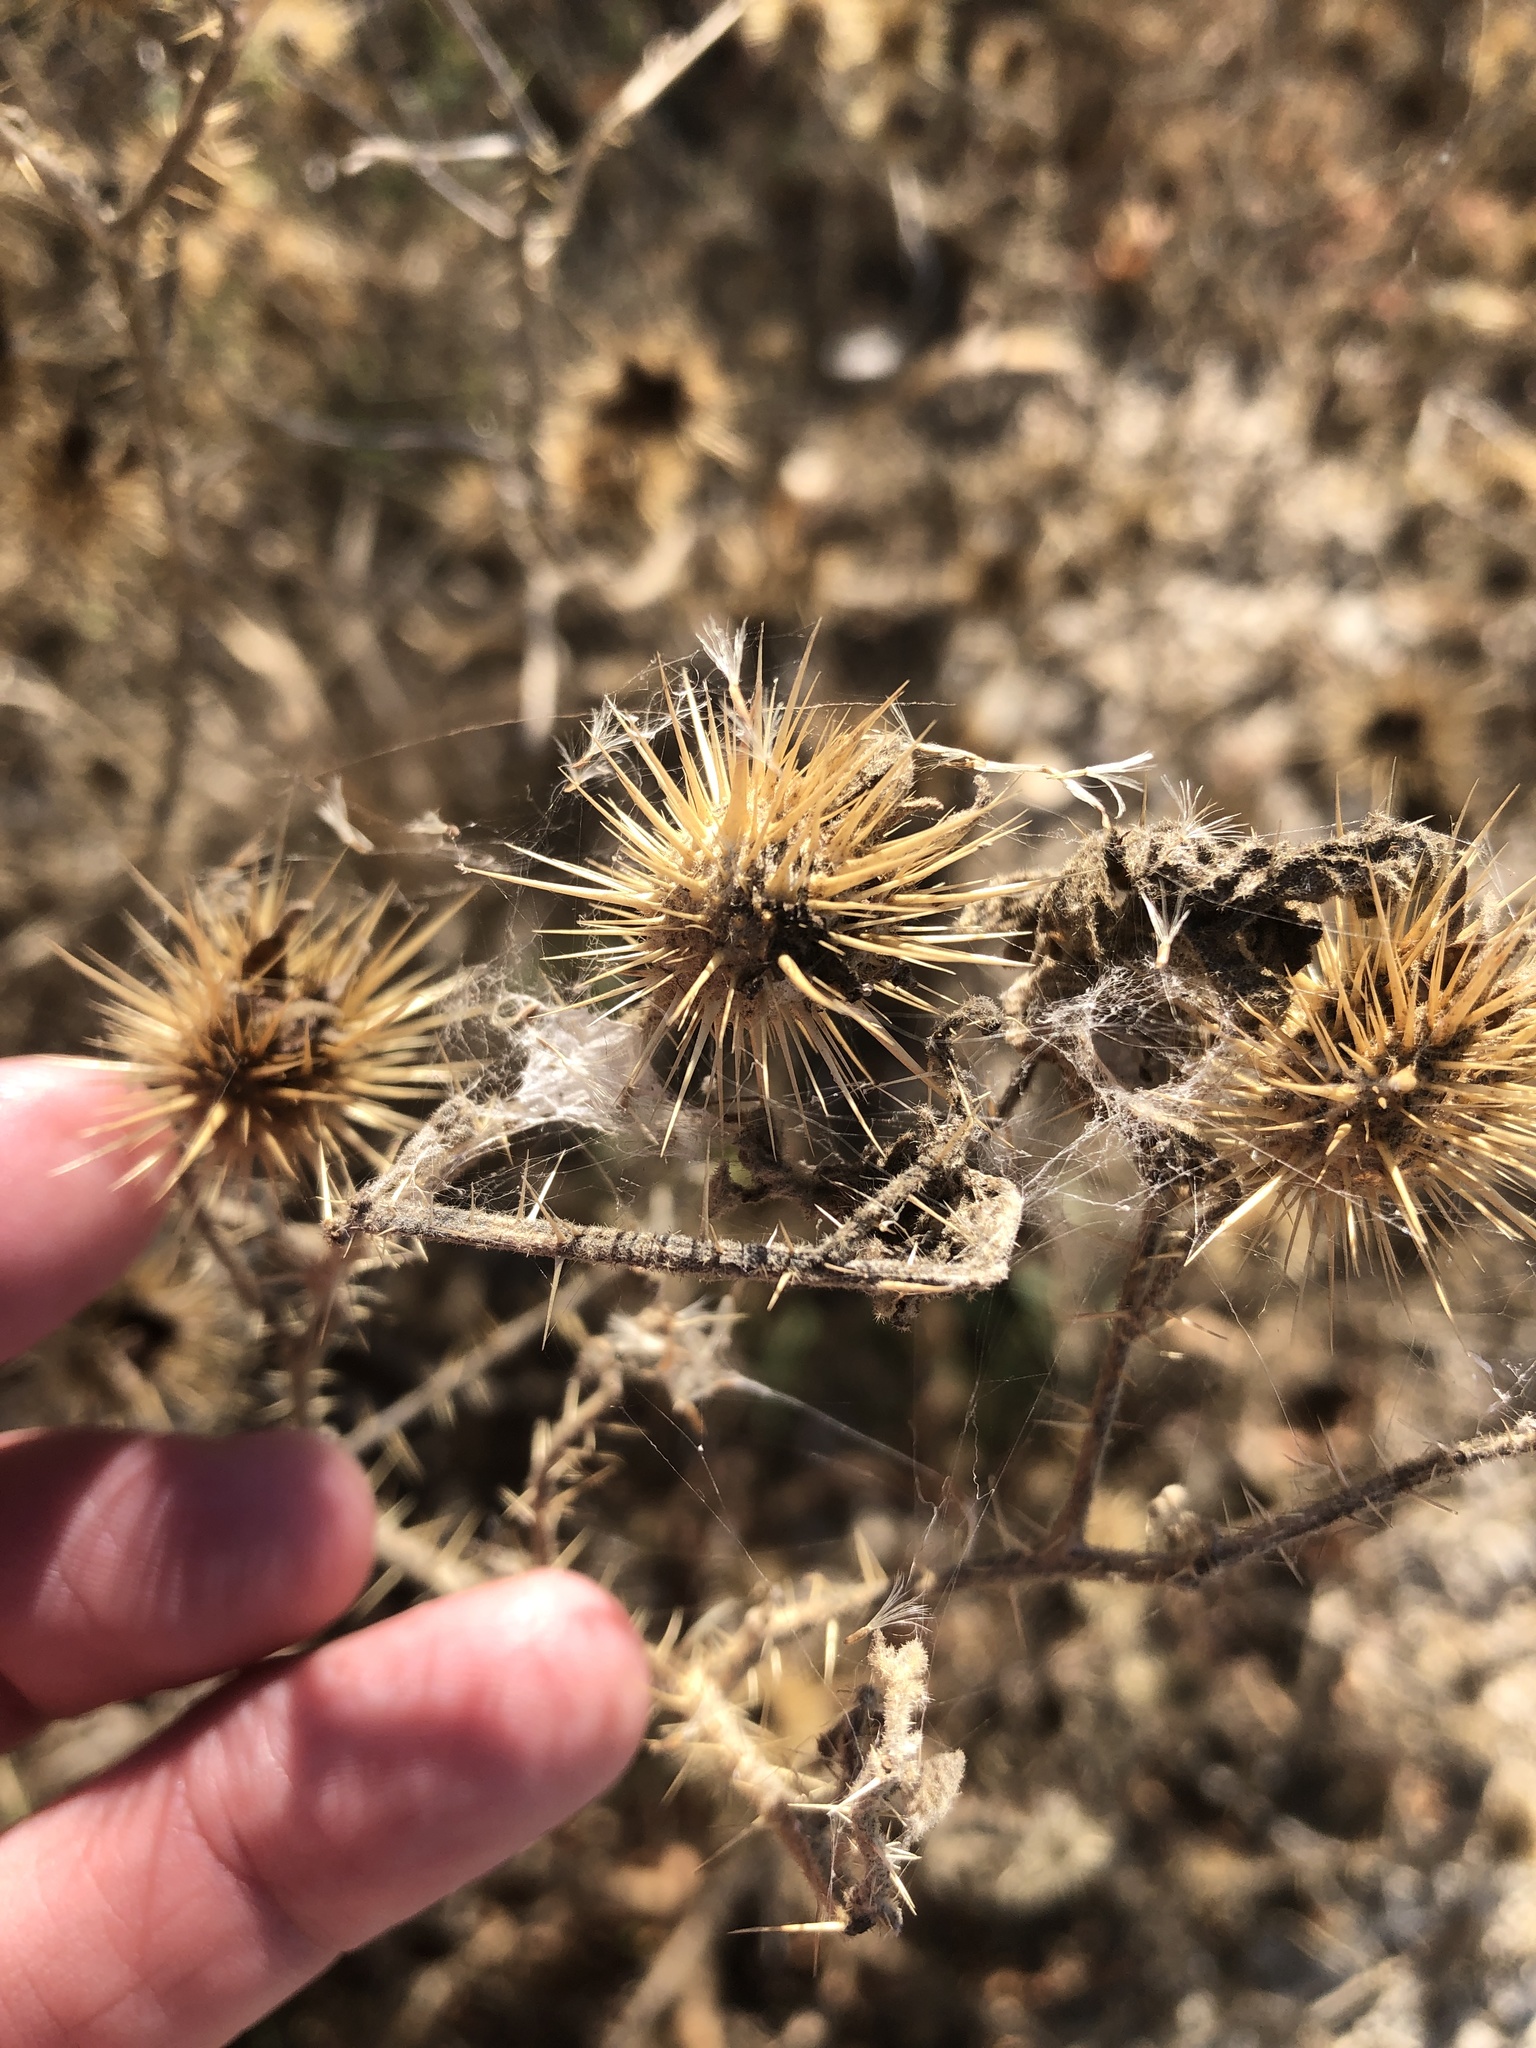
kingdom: Plantae
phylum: Tracheophyta
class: Magnoliopsida
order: Solanales
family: Solanaceae
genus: Solanum
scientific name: Solanum angustifolium
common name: Buffalobur nightshade
